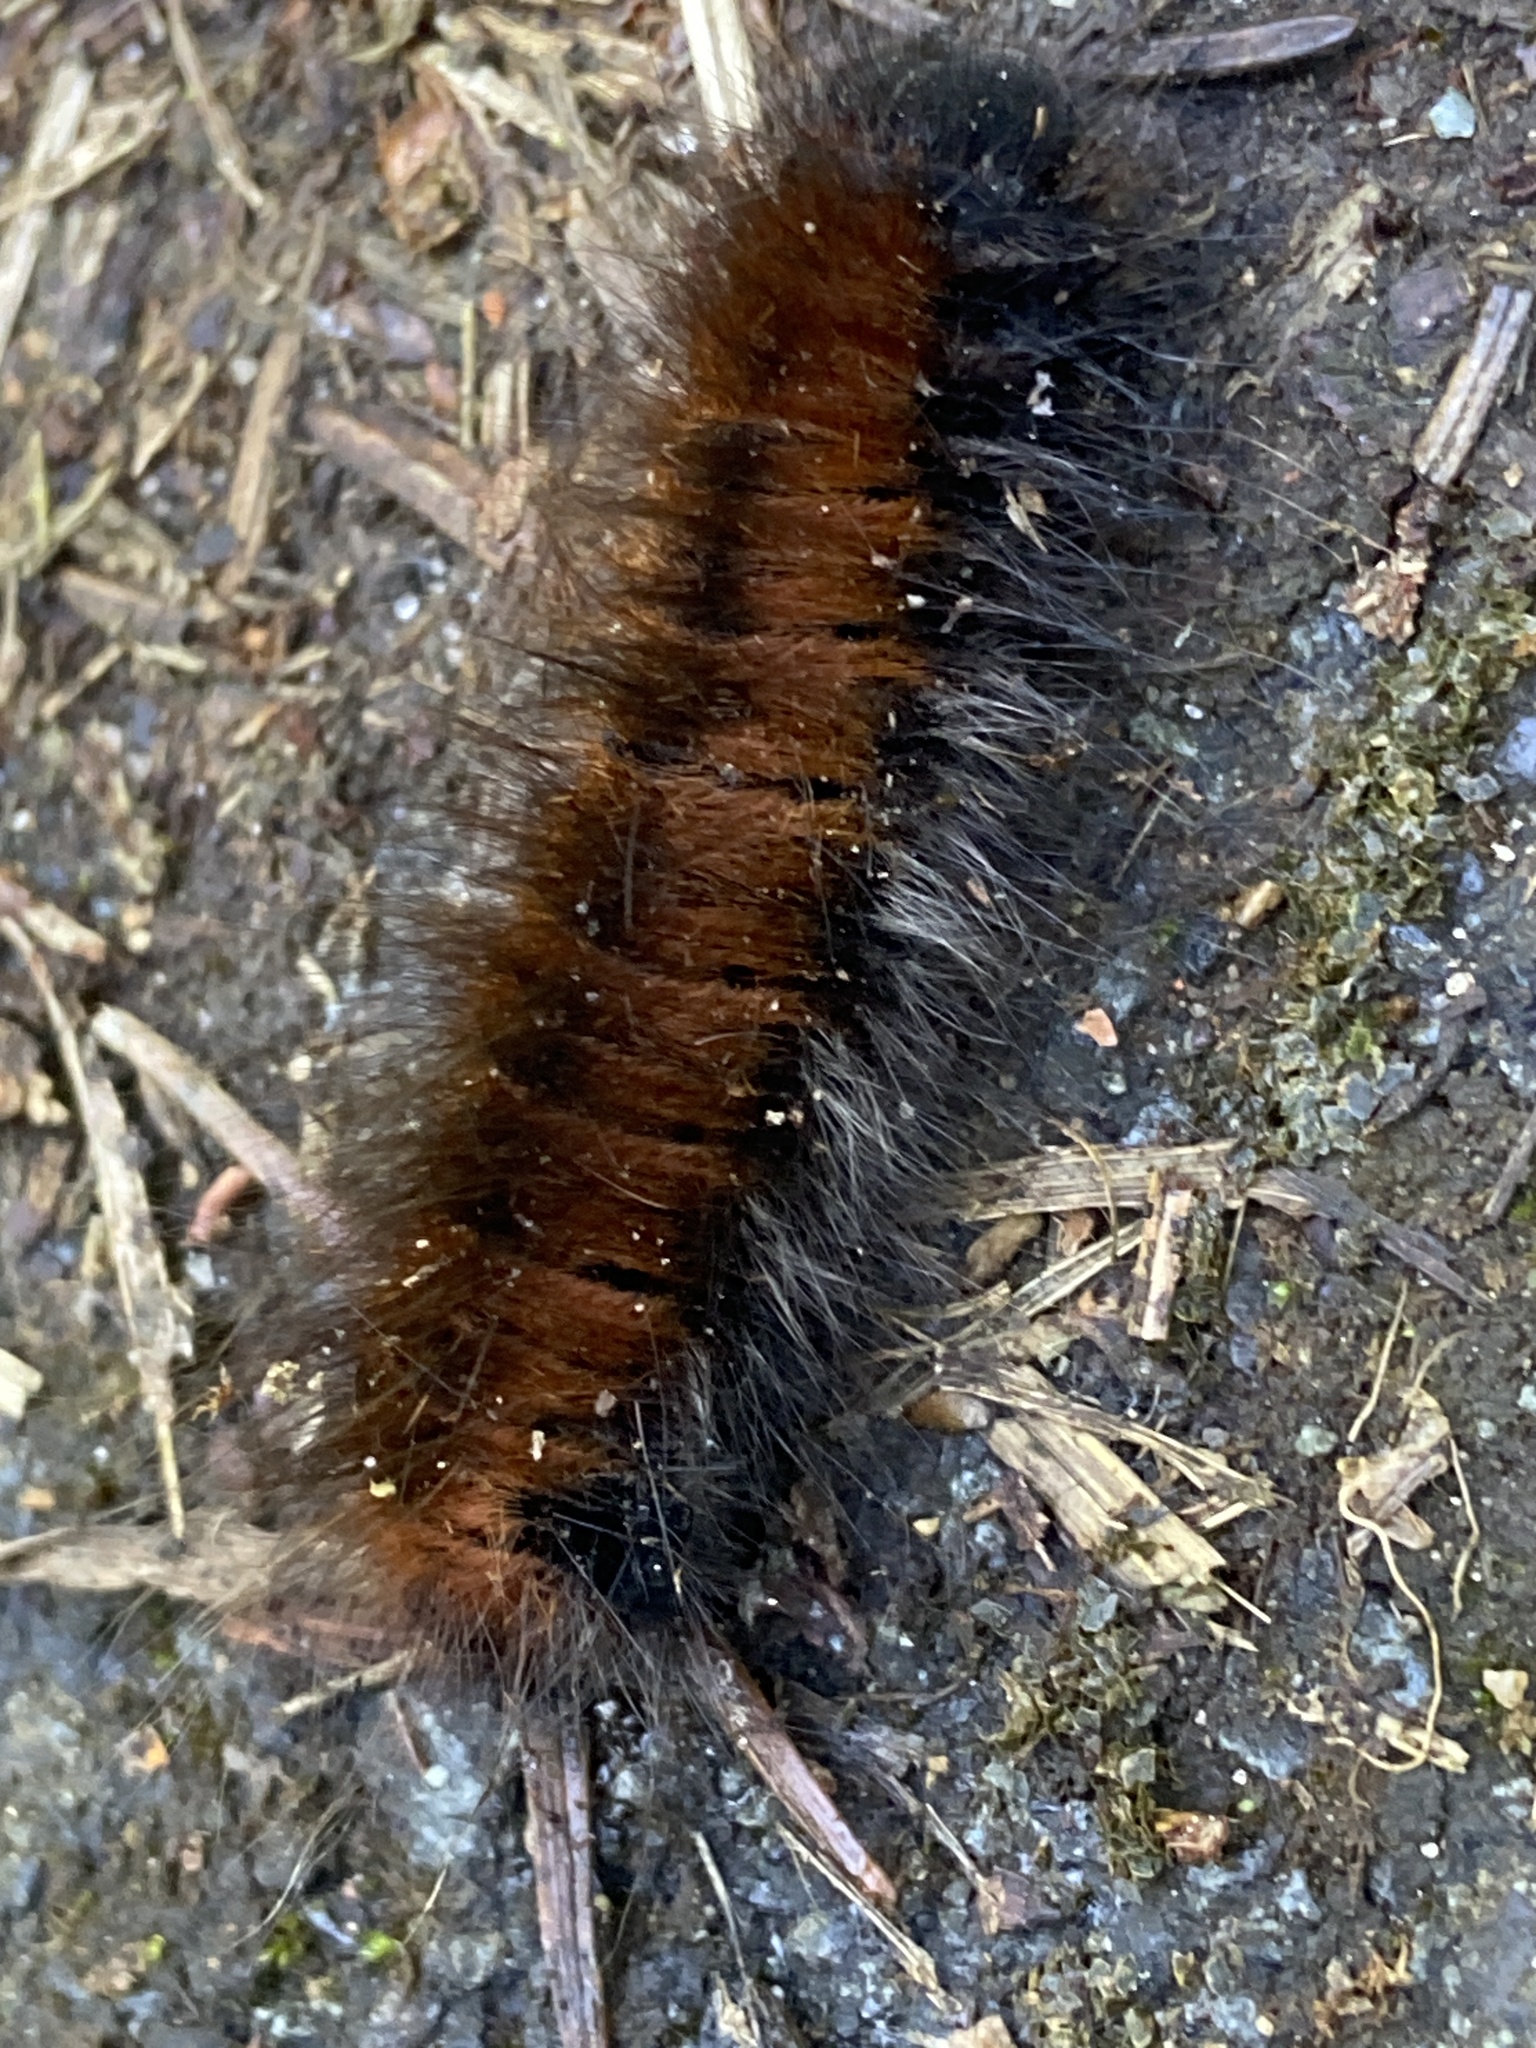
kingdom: Animalia
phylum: Arthropoda
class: Insecta
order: Lepidoptera
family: Lasiocampidae
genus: Macrothylacia
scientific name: Macrothylacia rubi
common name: Fox moth
